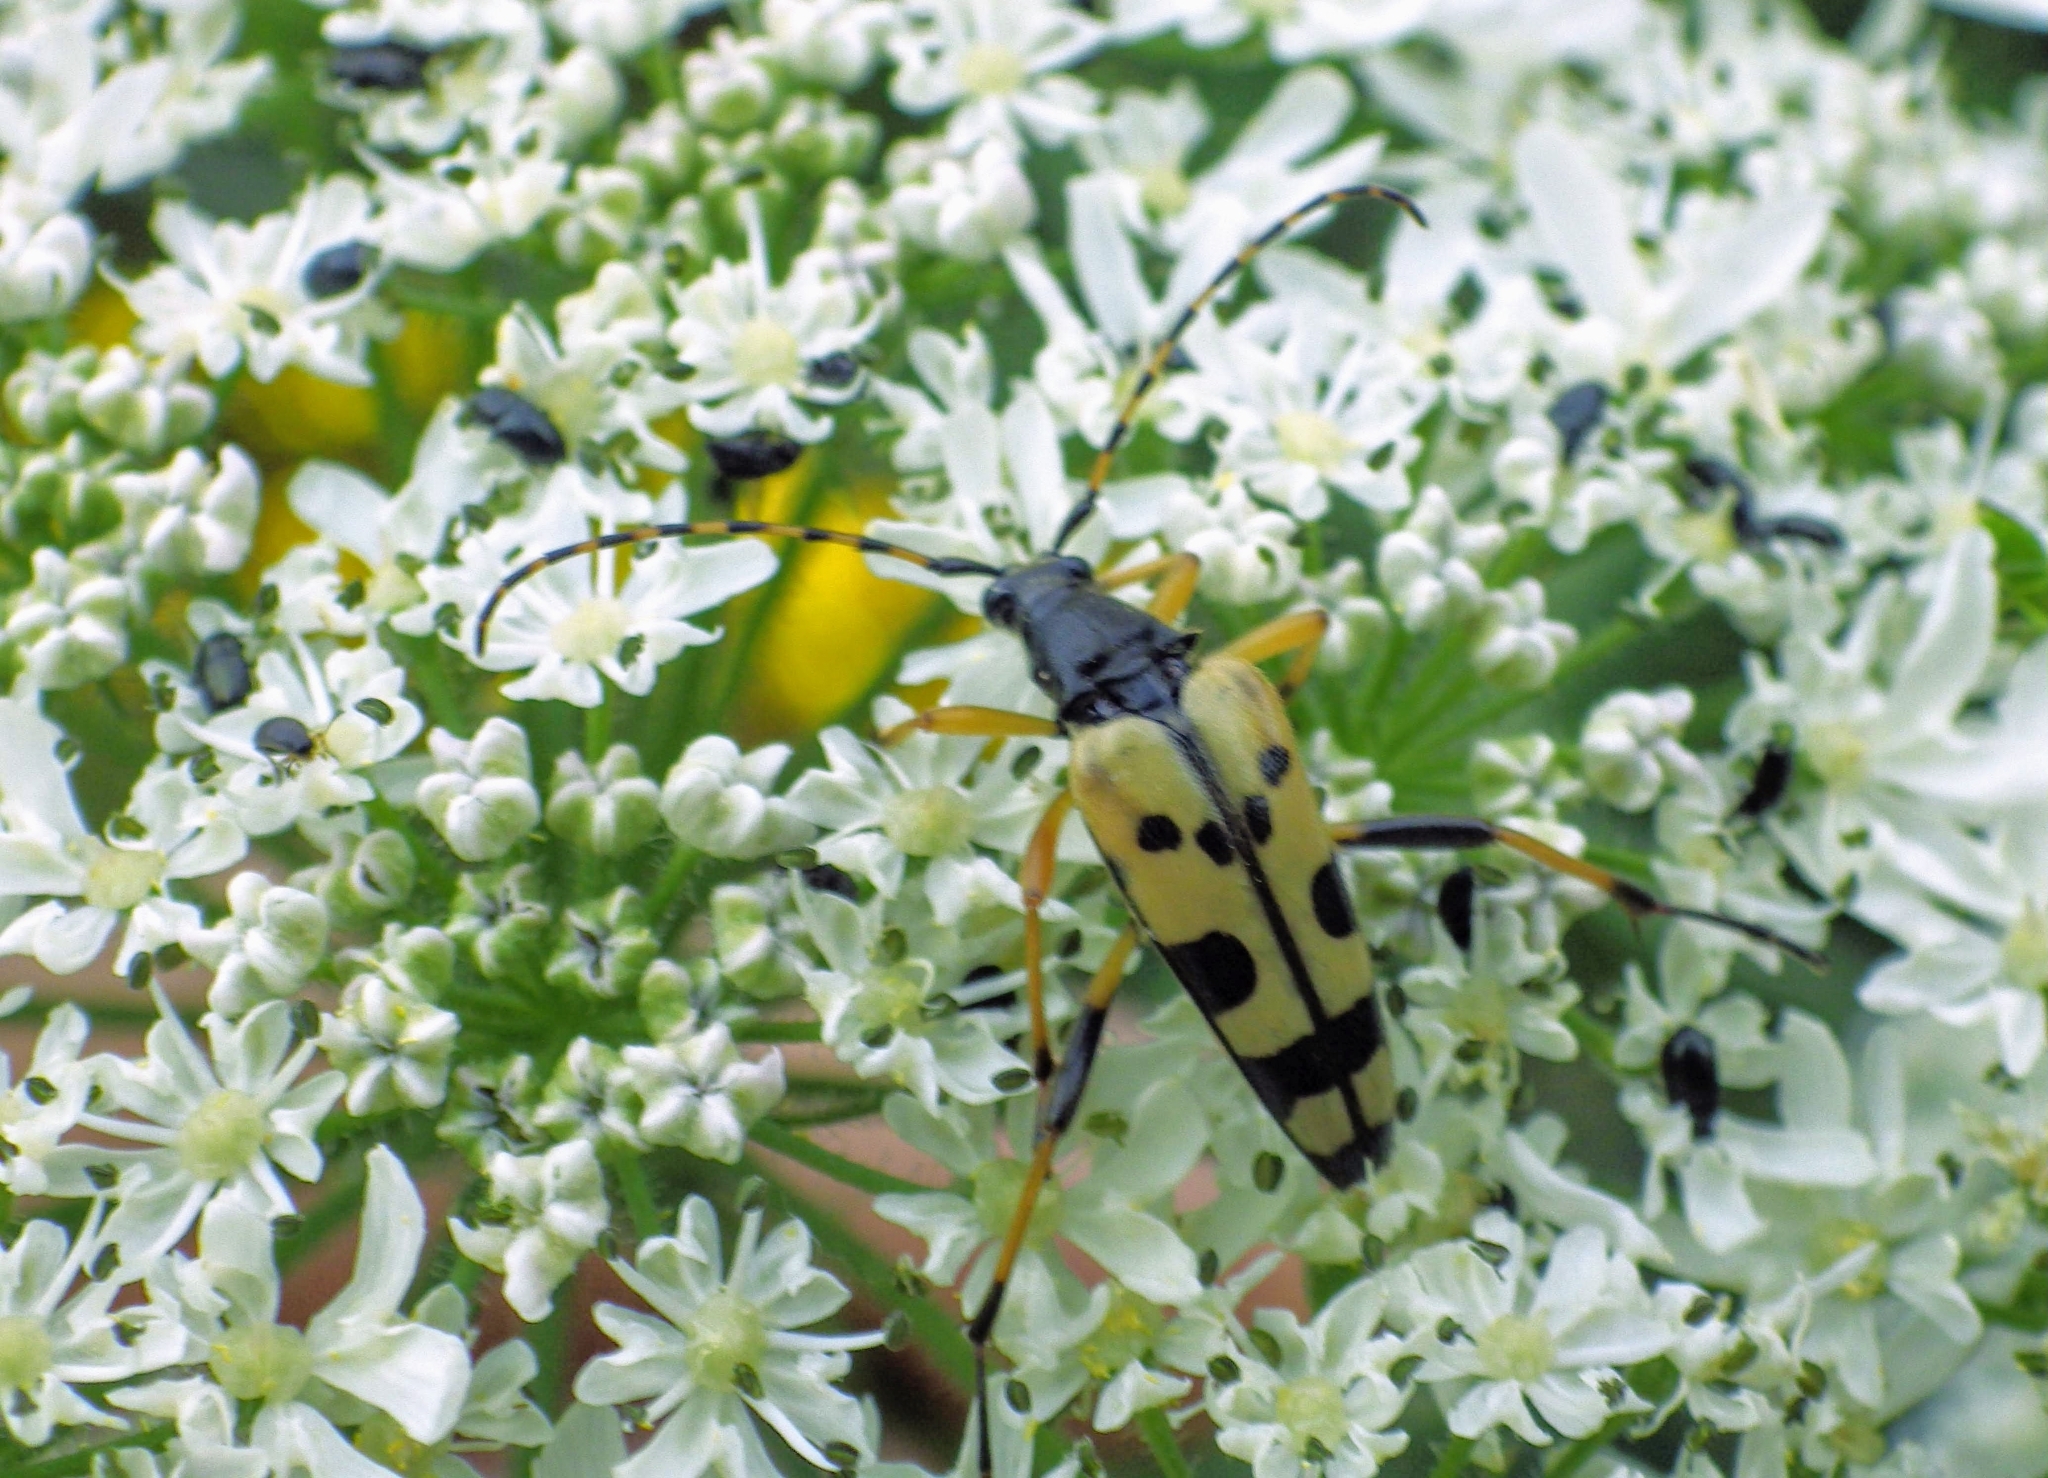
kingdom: Animalia
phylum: Arthropoda
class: Insecta
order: Coleoptera
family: Cerambycidae
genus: Rutpela
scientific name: Rutpela maculata
